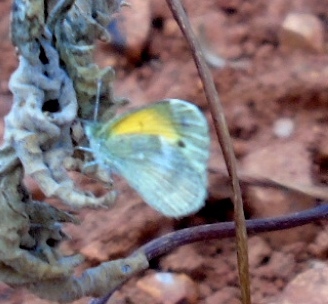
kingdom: Animalia
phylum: Arthropoda
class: Insecta
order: Lepidoptera
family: Pieridae
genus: Nathalis
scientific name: Nathalis iole
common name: Dainty sulphur
